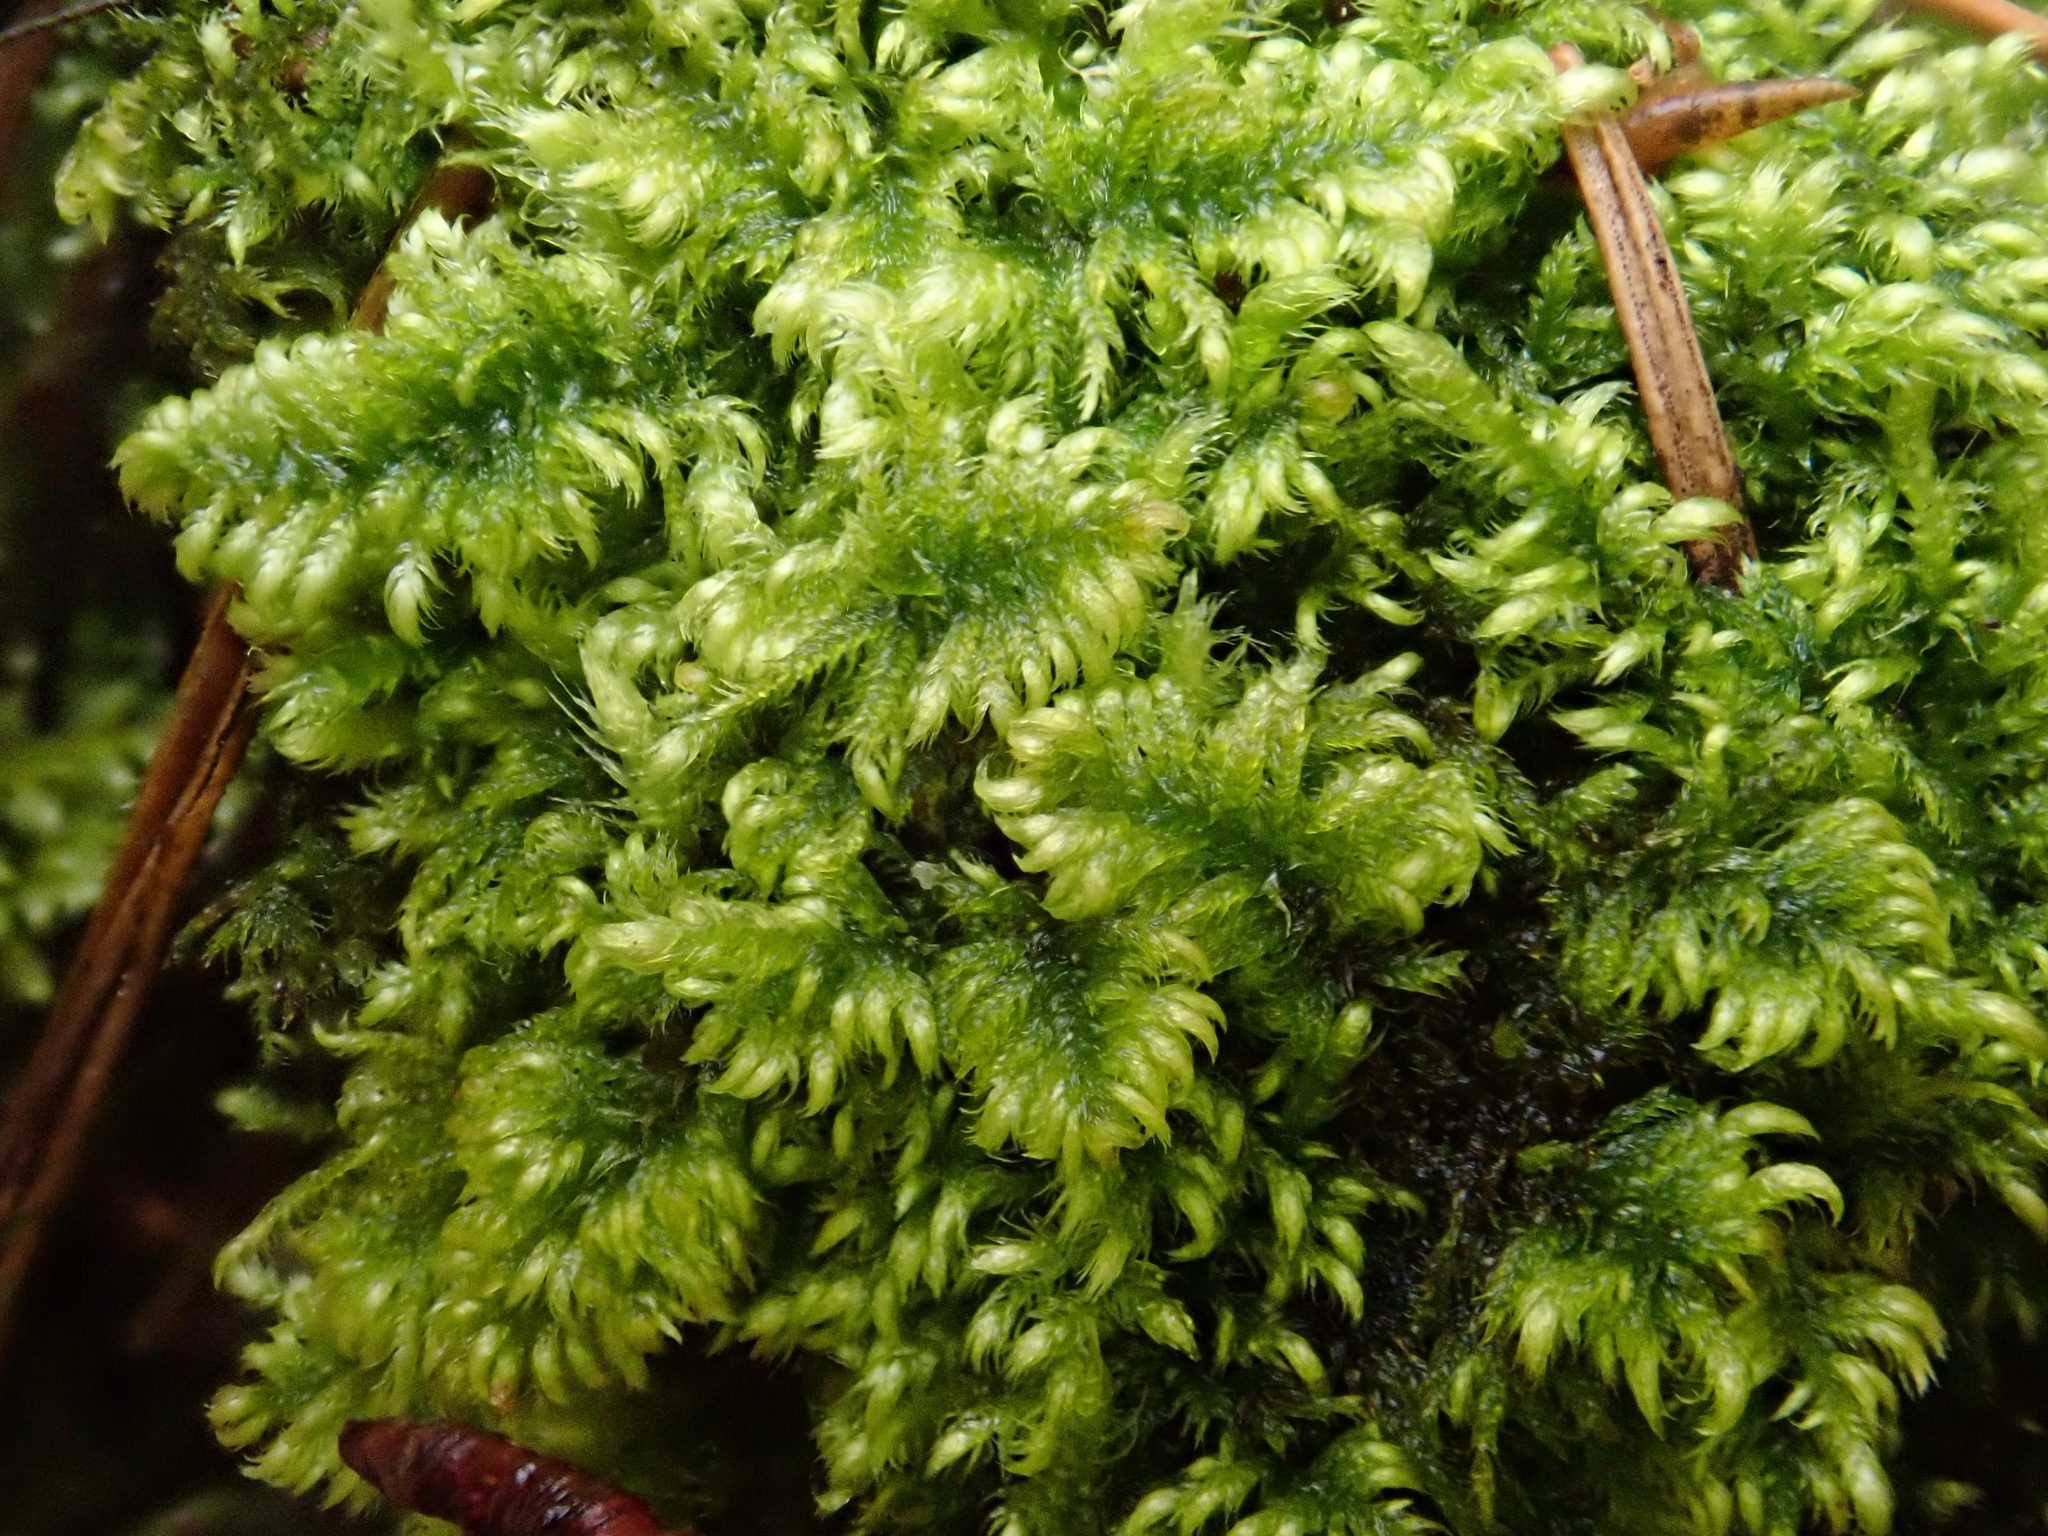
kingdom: Plantae
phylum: Bryophyta
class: Bryopsida
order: Hypnales
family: Myuriaceae
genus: Ctenidium
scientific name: Ctenidium molluscum
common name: Chalk comb-moss
